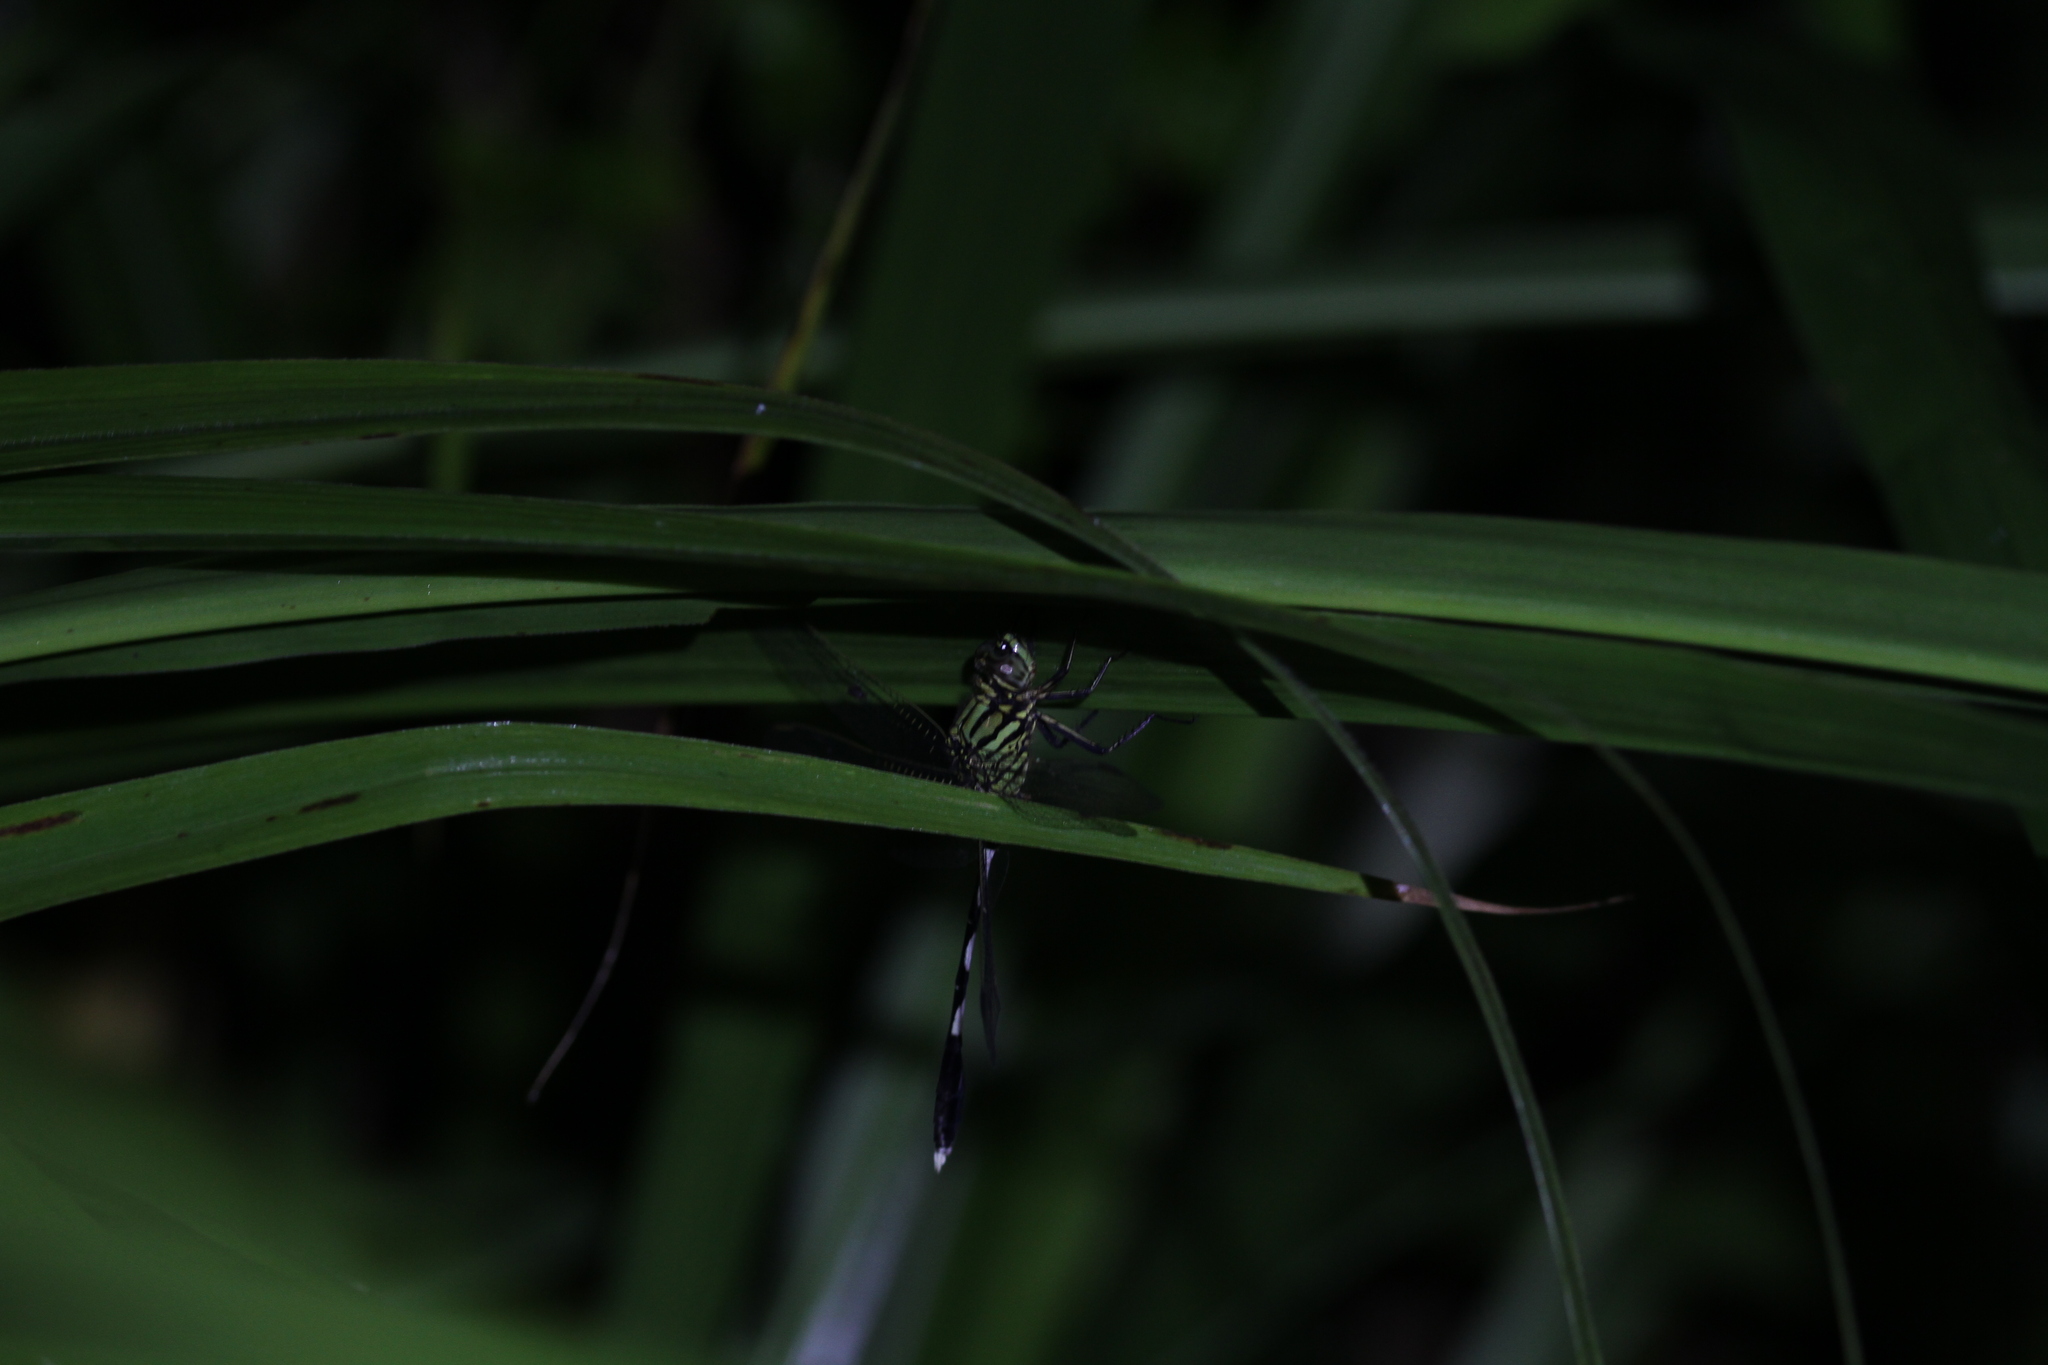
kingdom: Animalia
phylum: Arthropoda
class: Insecta
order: Odonata
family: Libellulidae
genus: Orthetrum
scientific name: Orthetrum sabina
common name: Slender skimmer
